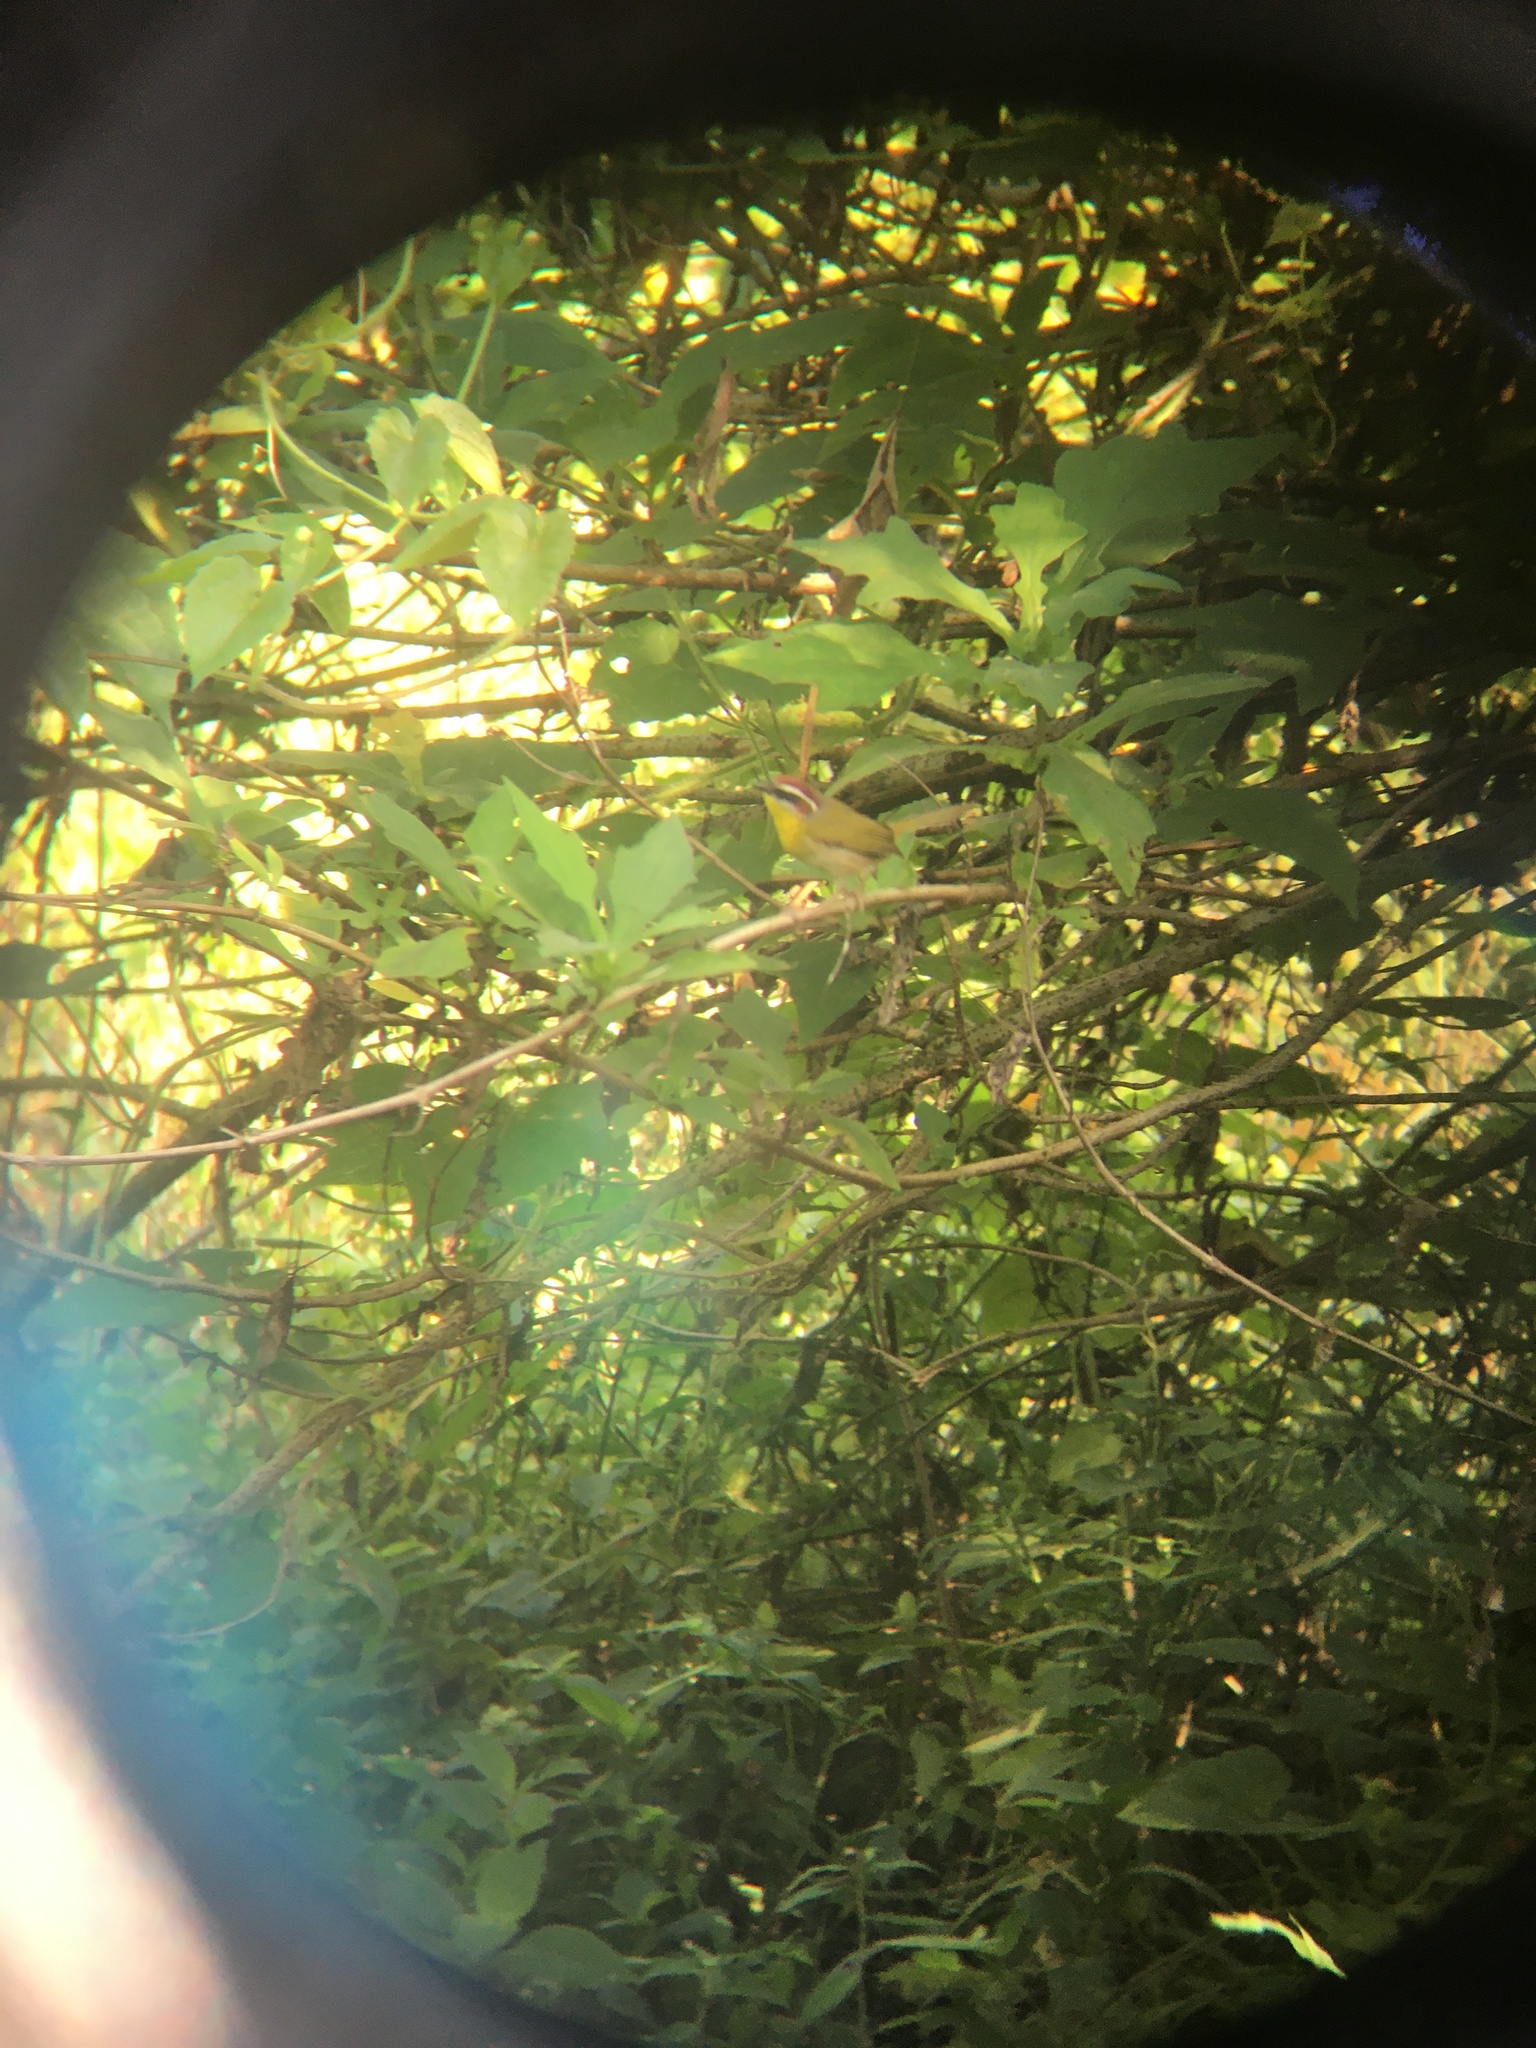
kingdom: Animalia
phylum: Chordata
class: Aves
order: Passeriformes
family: Parulidae
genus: Basileuterus
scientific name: Basileuterus rufifrons
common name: Rufous-capped warbler
